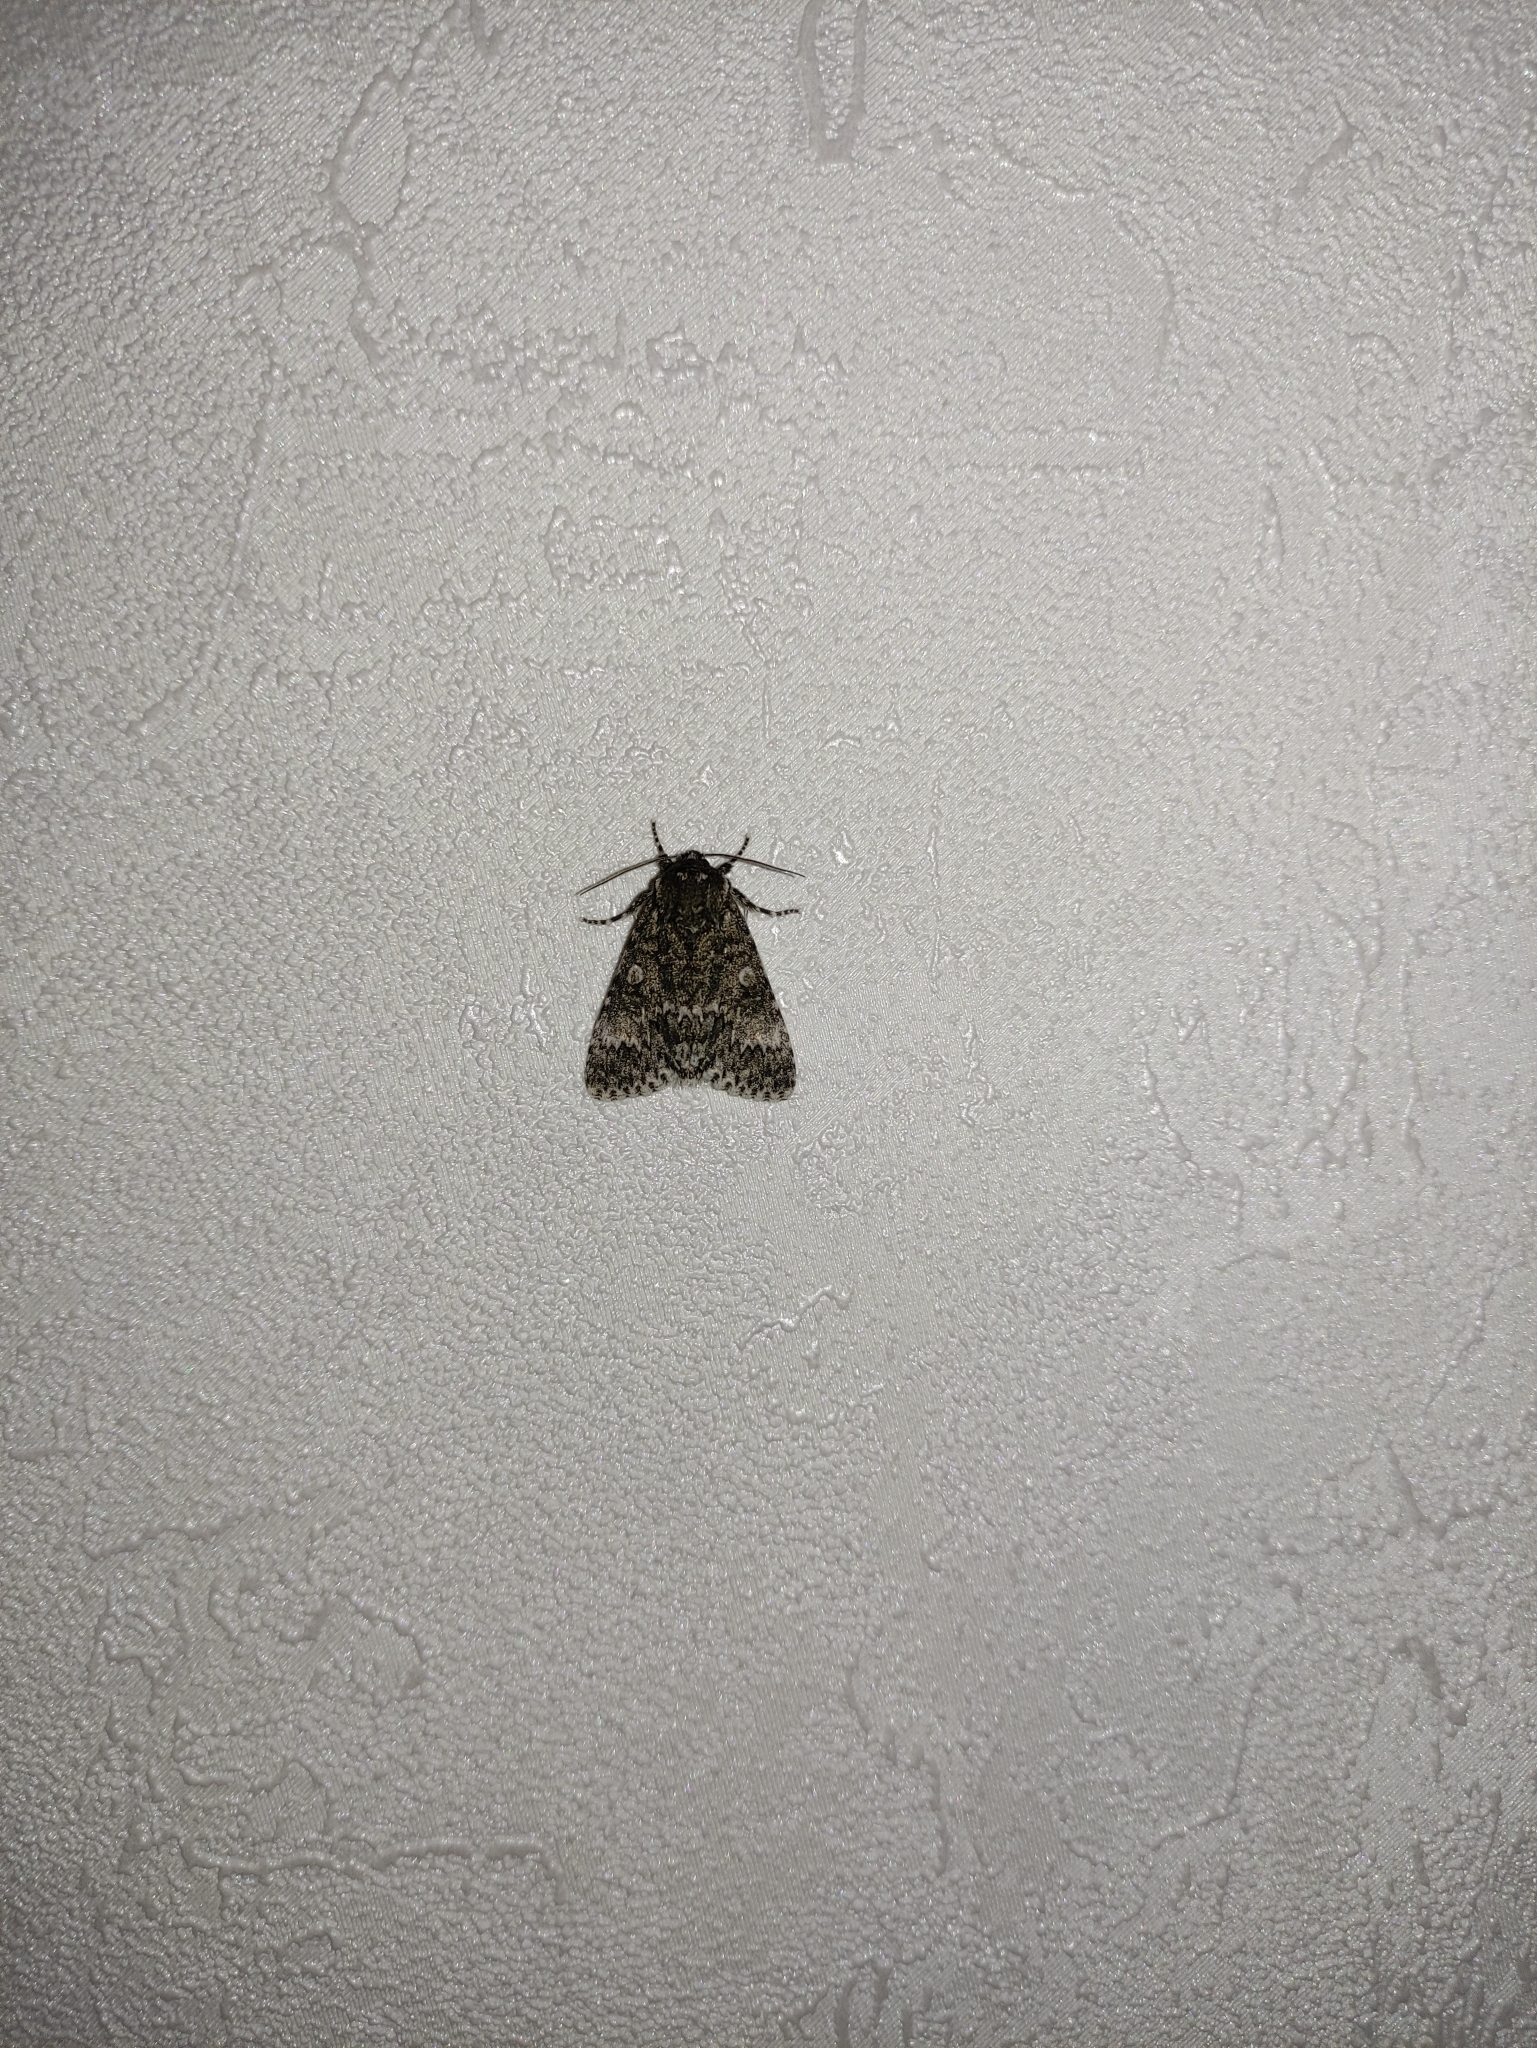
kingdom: Animalia
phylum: Arthropoda
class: Insecta
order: Lepidoptera
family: Noctuidae
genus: Acronicta
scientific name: Acronicta megacephala
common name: Poplar grey
